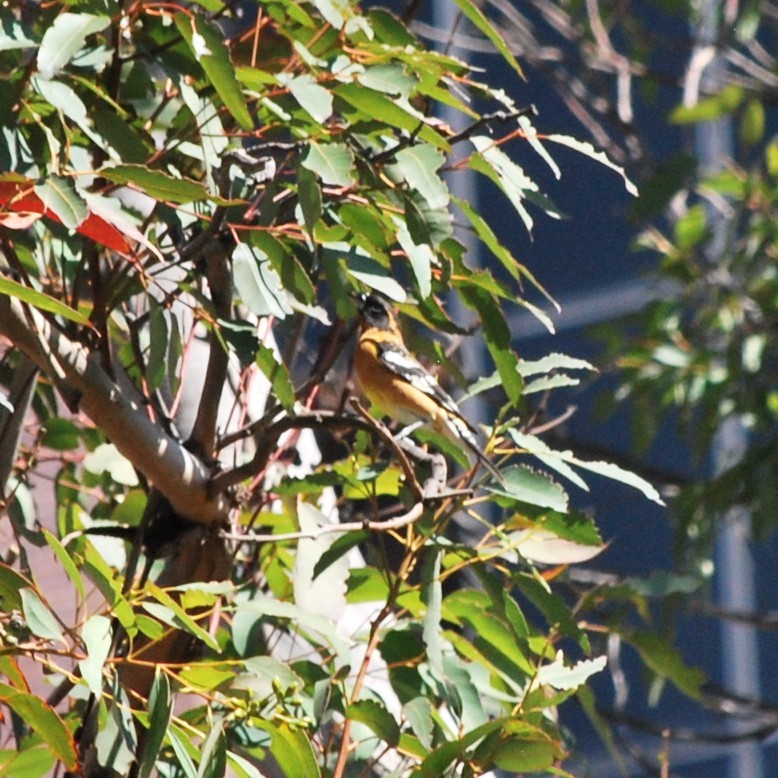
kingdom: Animalia
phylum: Chordata
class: Aves
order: Passeriformes
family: Cardinalidae
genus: Pheucticus
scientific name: Pheucticus melanocephalus
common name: Black-headed grosbeak
